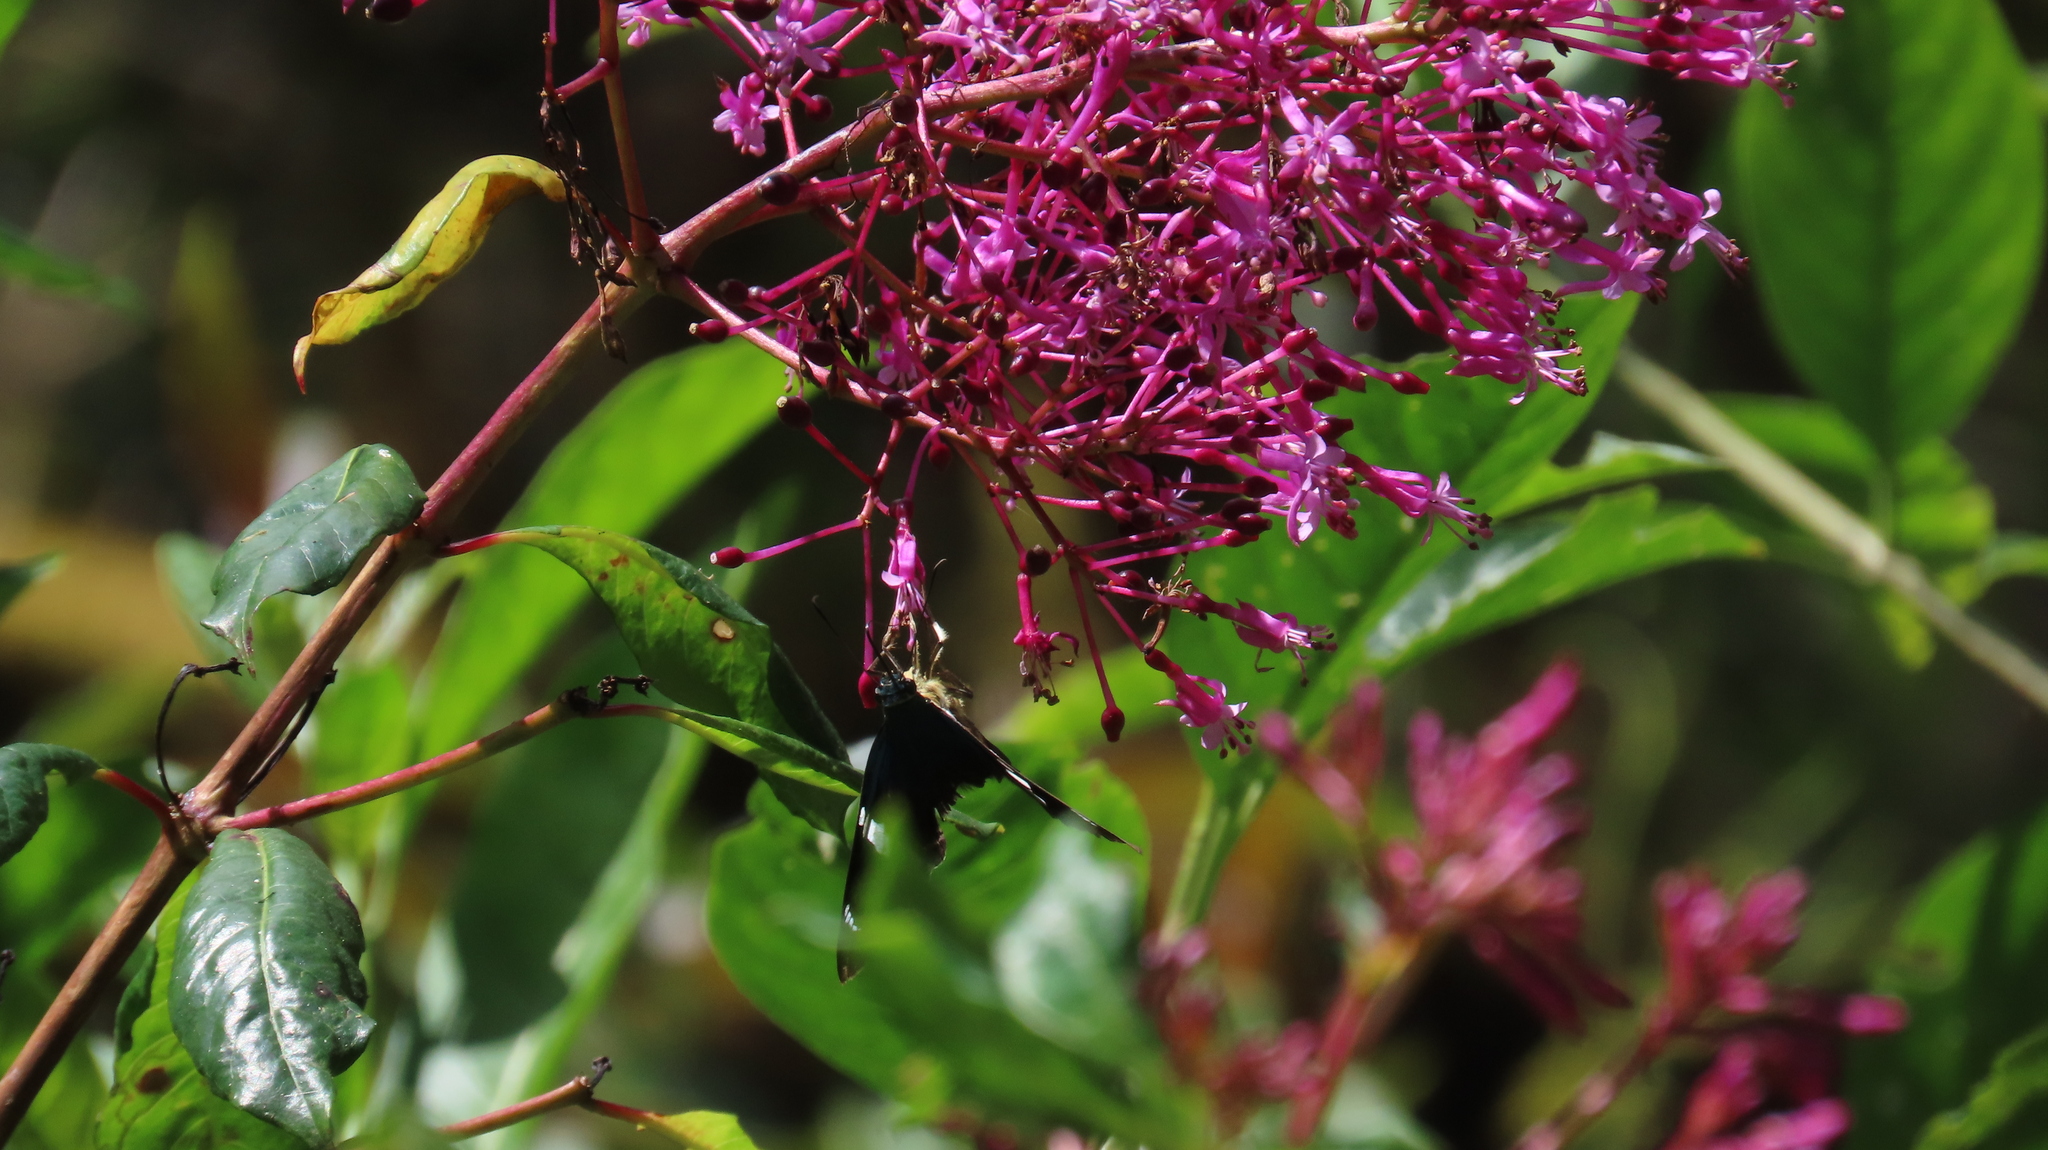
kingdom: Plantae
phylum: Tracheophyta
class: Magnoliopsida
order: Myrtales
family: Onagraceae
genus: Fuchsia
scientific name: Fuchsia paniculata
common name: Shrubby fuchsia
